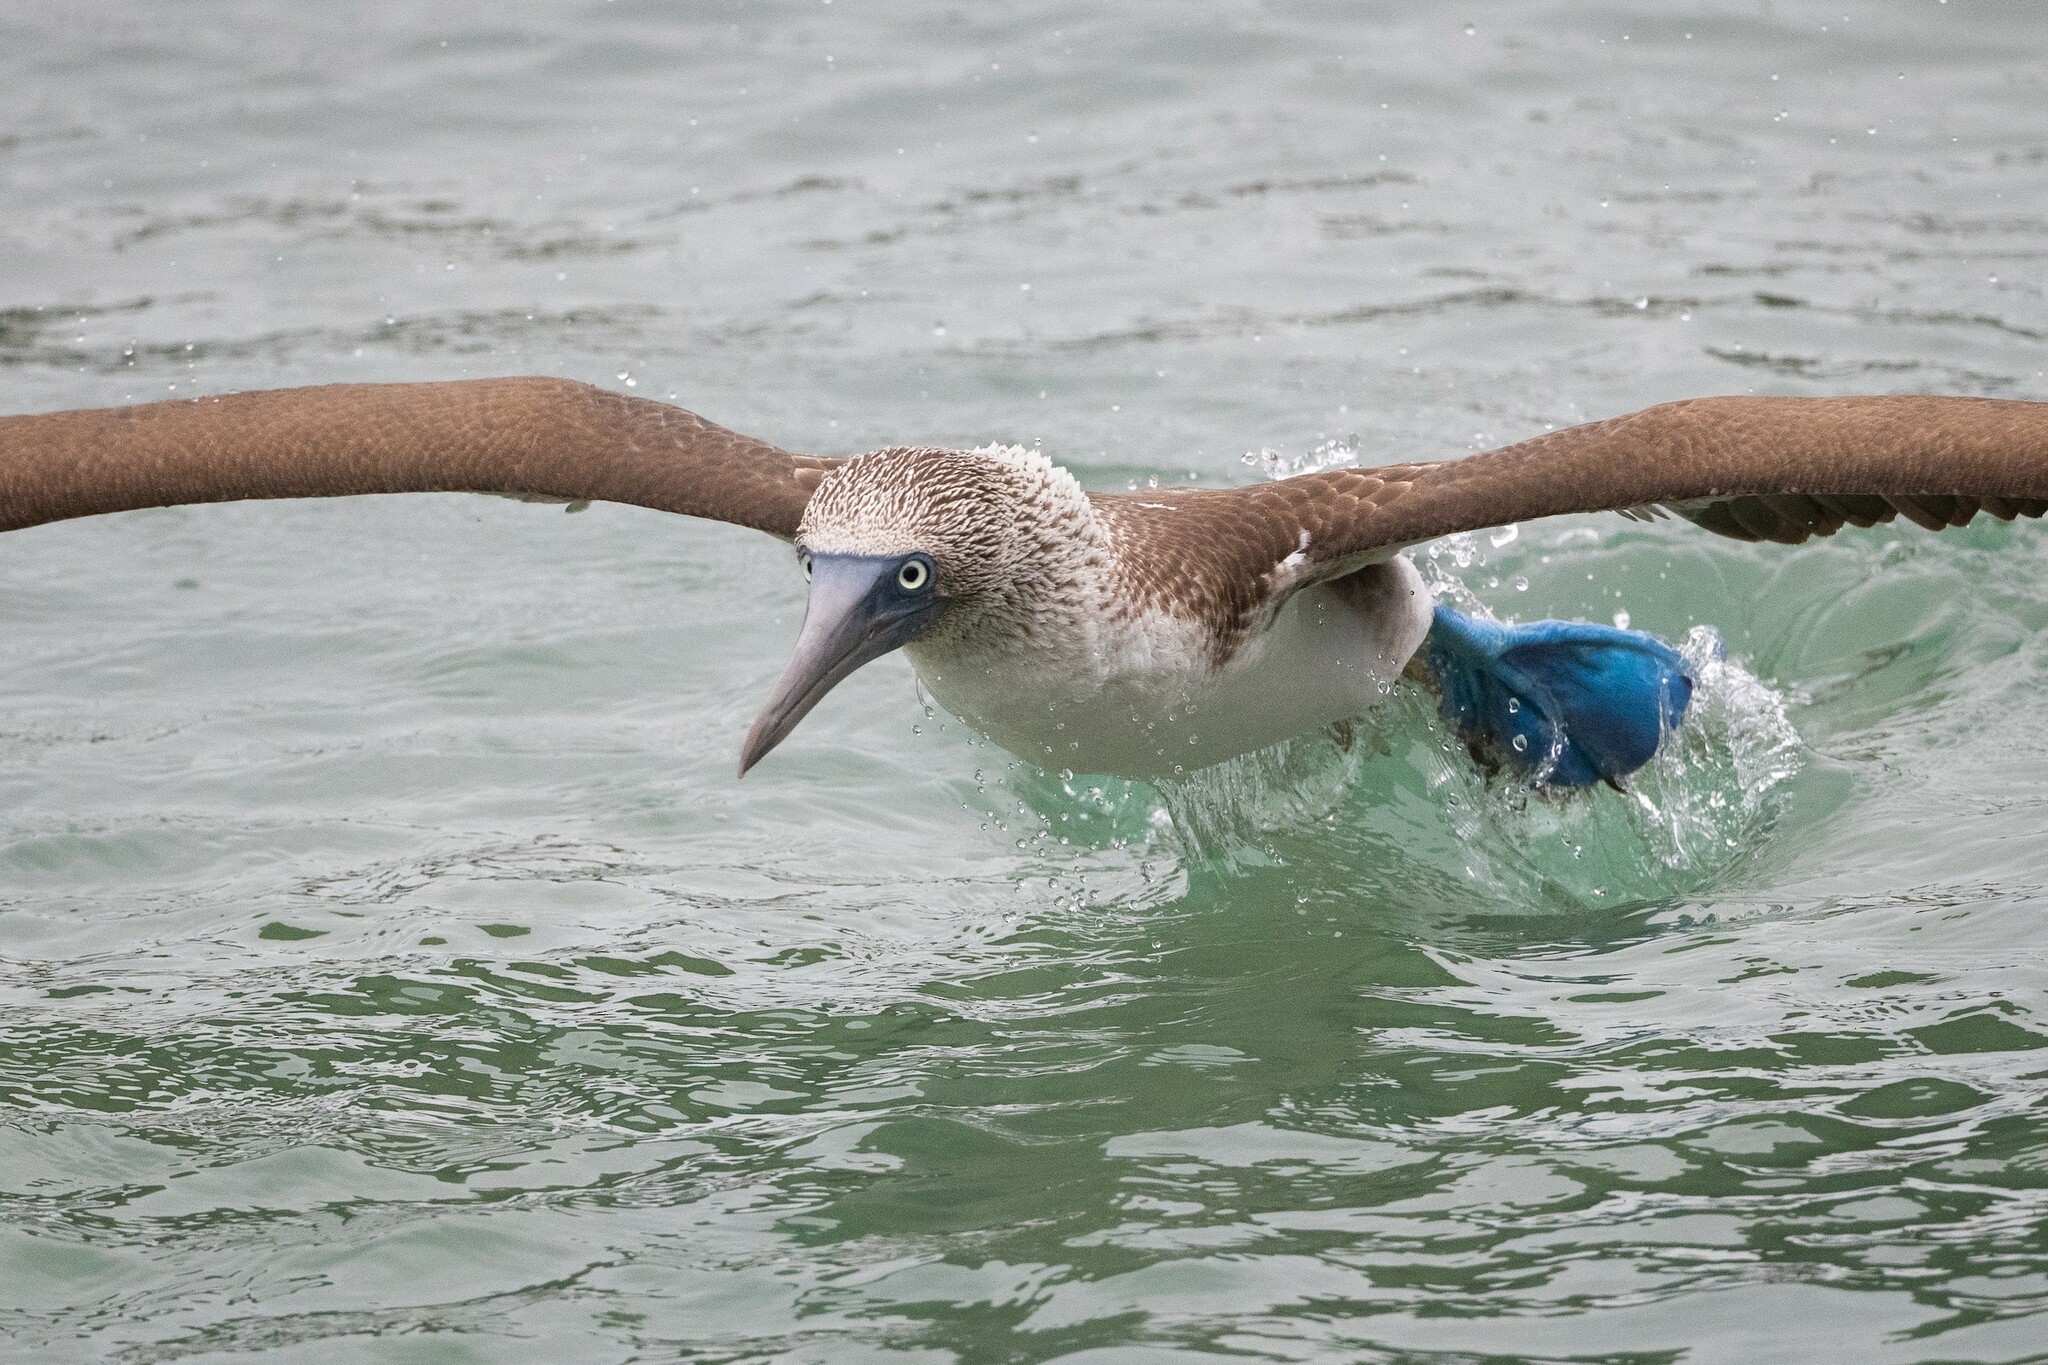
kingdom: Animalia
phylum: Chordata
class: Aves
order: Suliformes
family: Sulidae
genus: Sula
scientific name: Sula nebouxii
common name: Blue-footed booby
